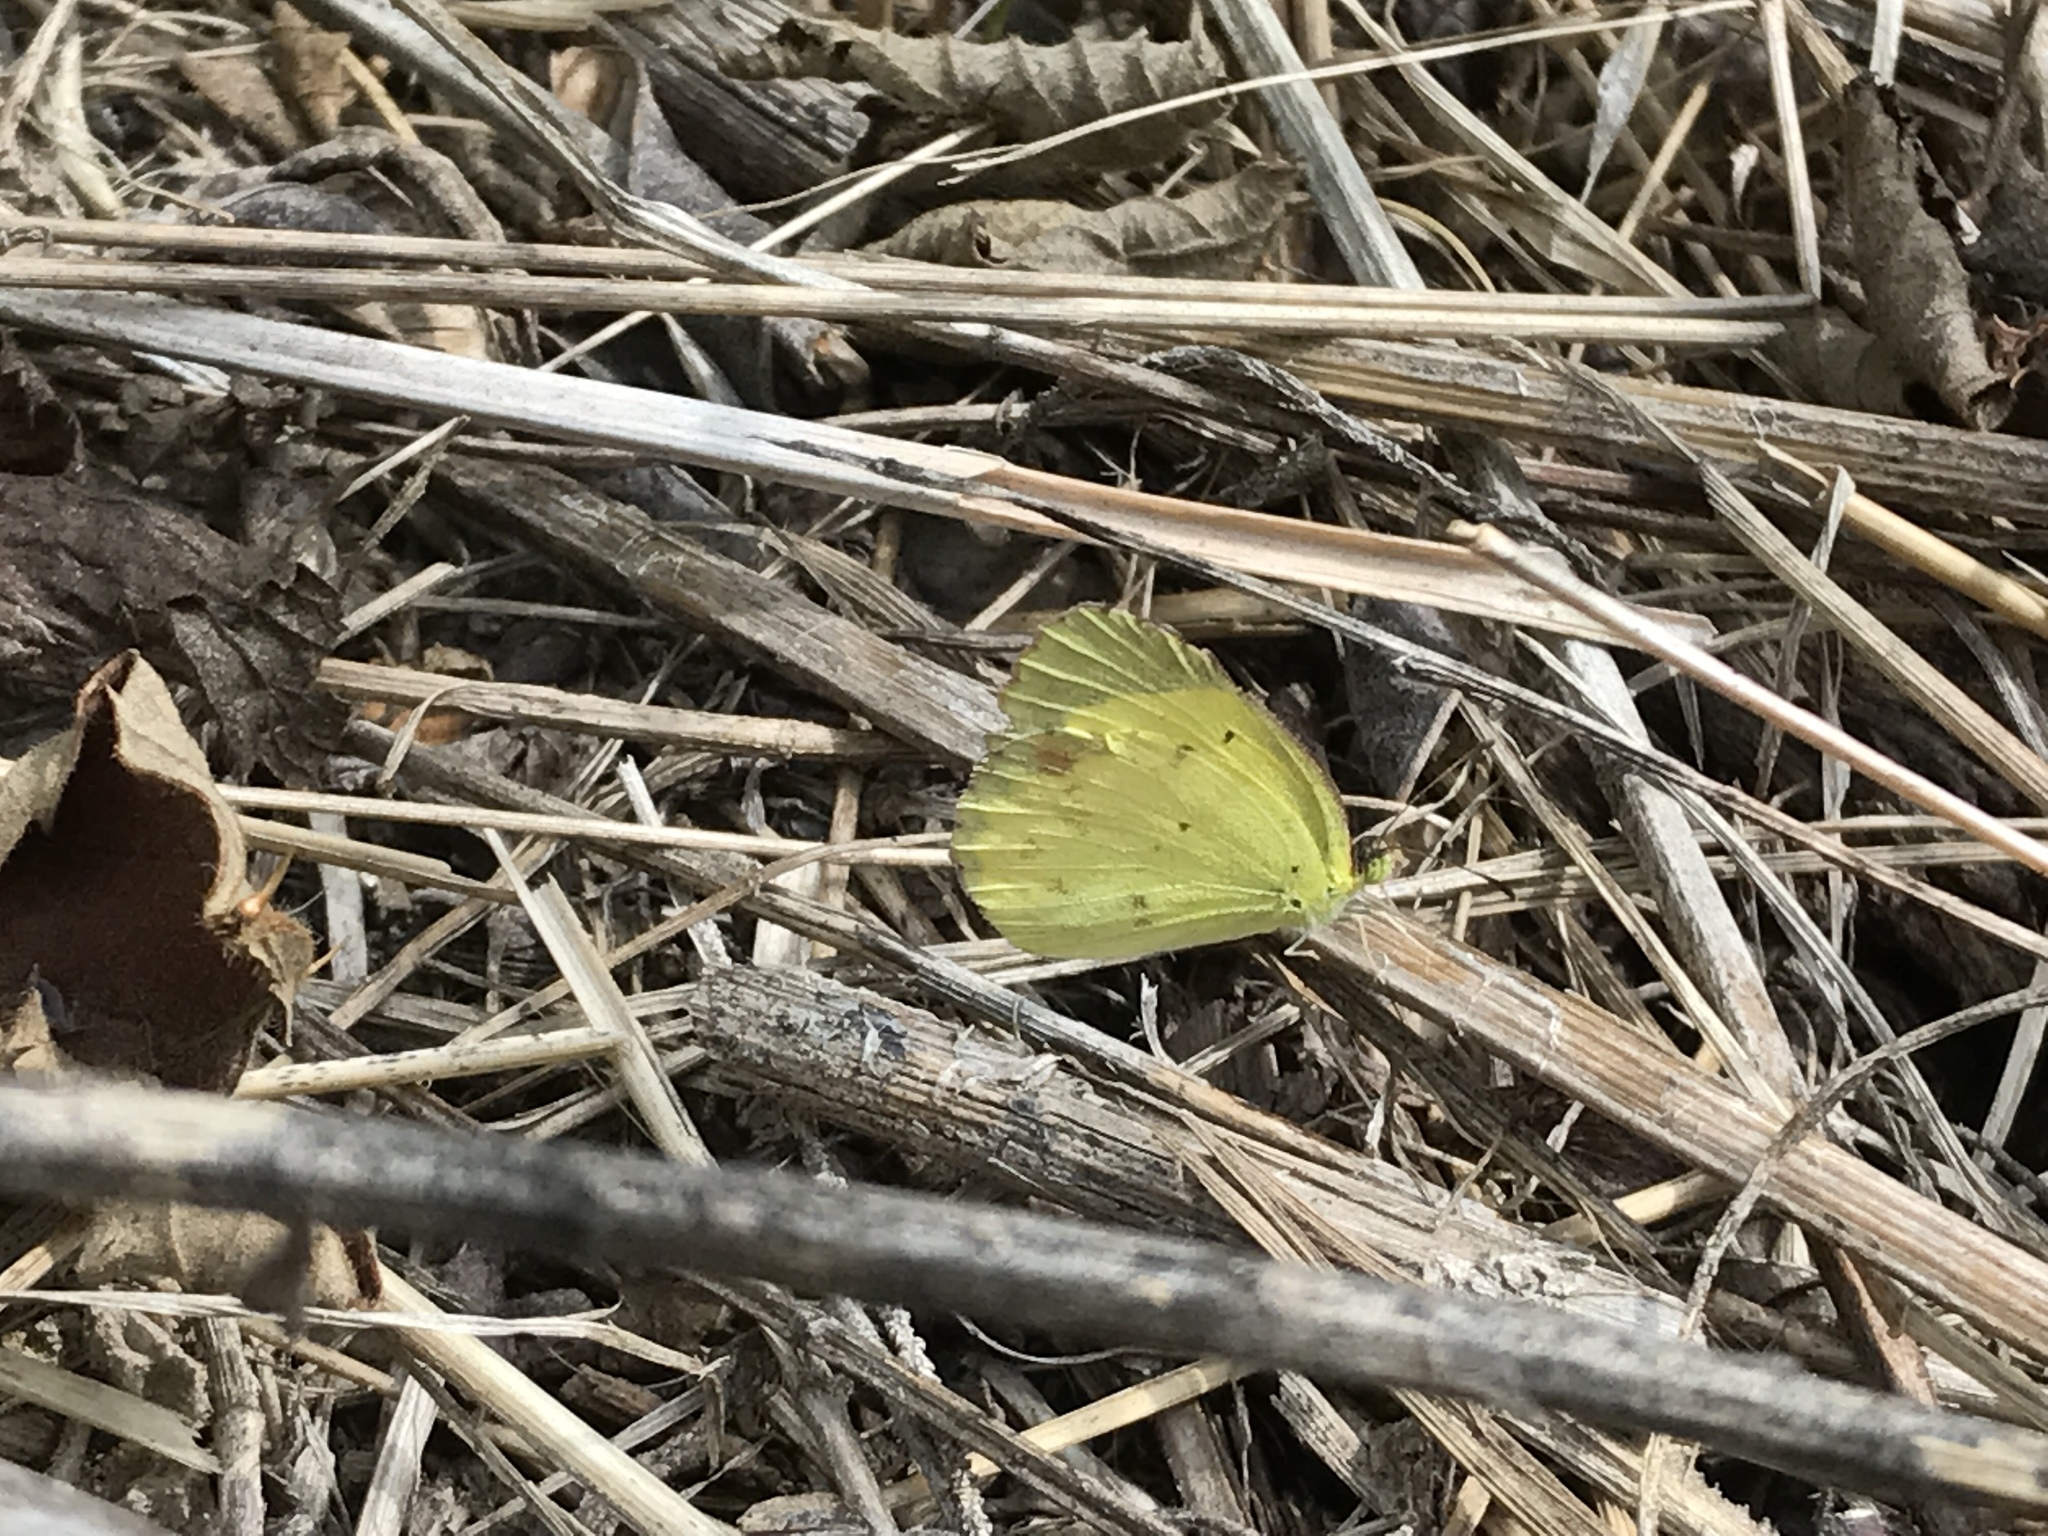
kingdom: Animalia
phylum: Arthropoda
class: Insecta
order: Lepidoptera
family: Pieridae
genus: Pyrisitia
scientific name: Pyrisitia lisa
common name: Little yellow
